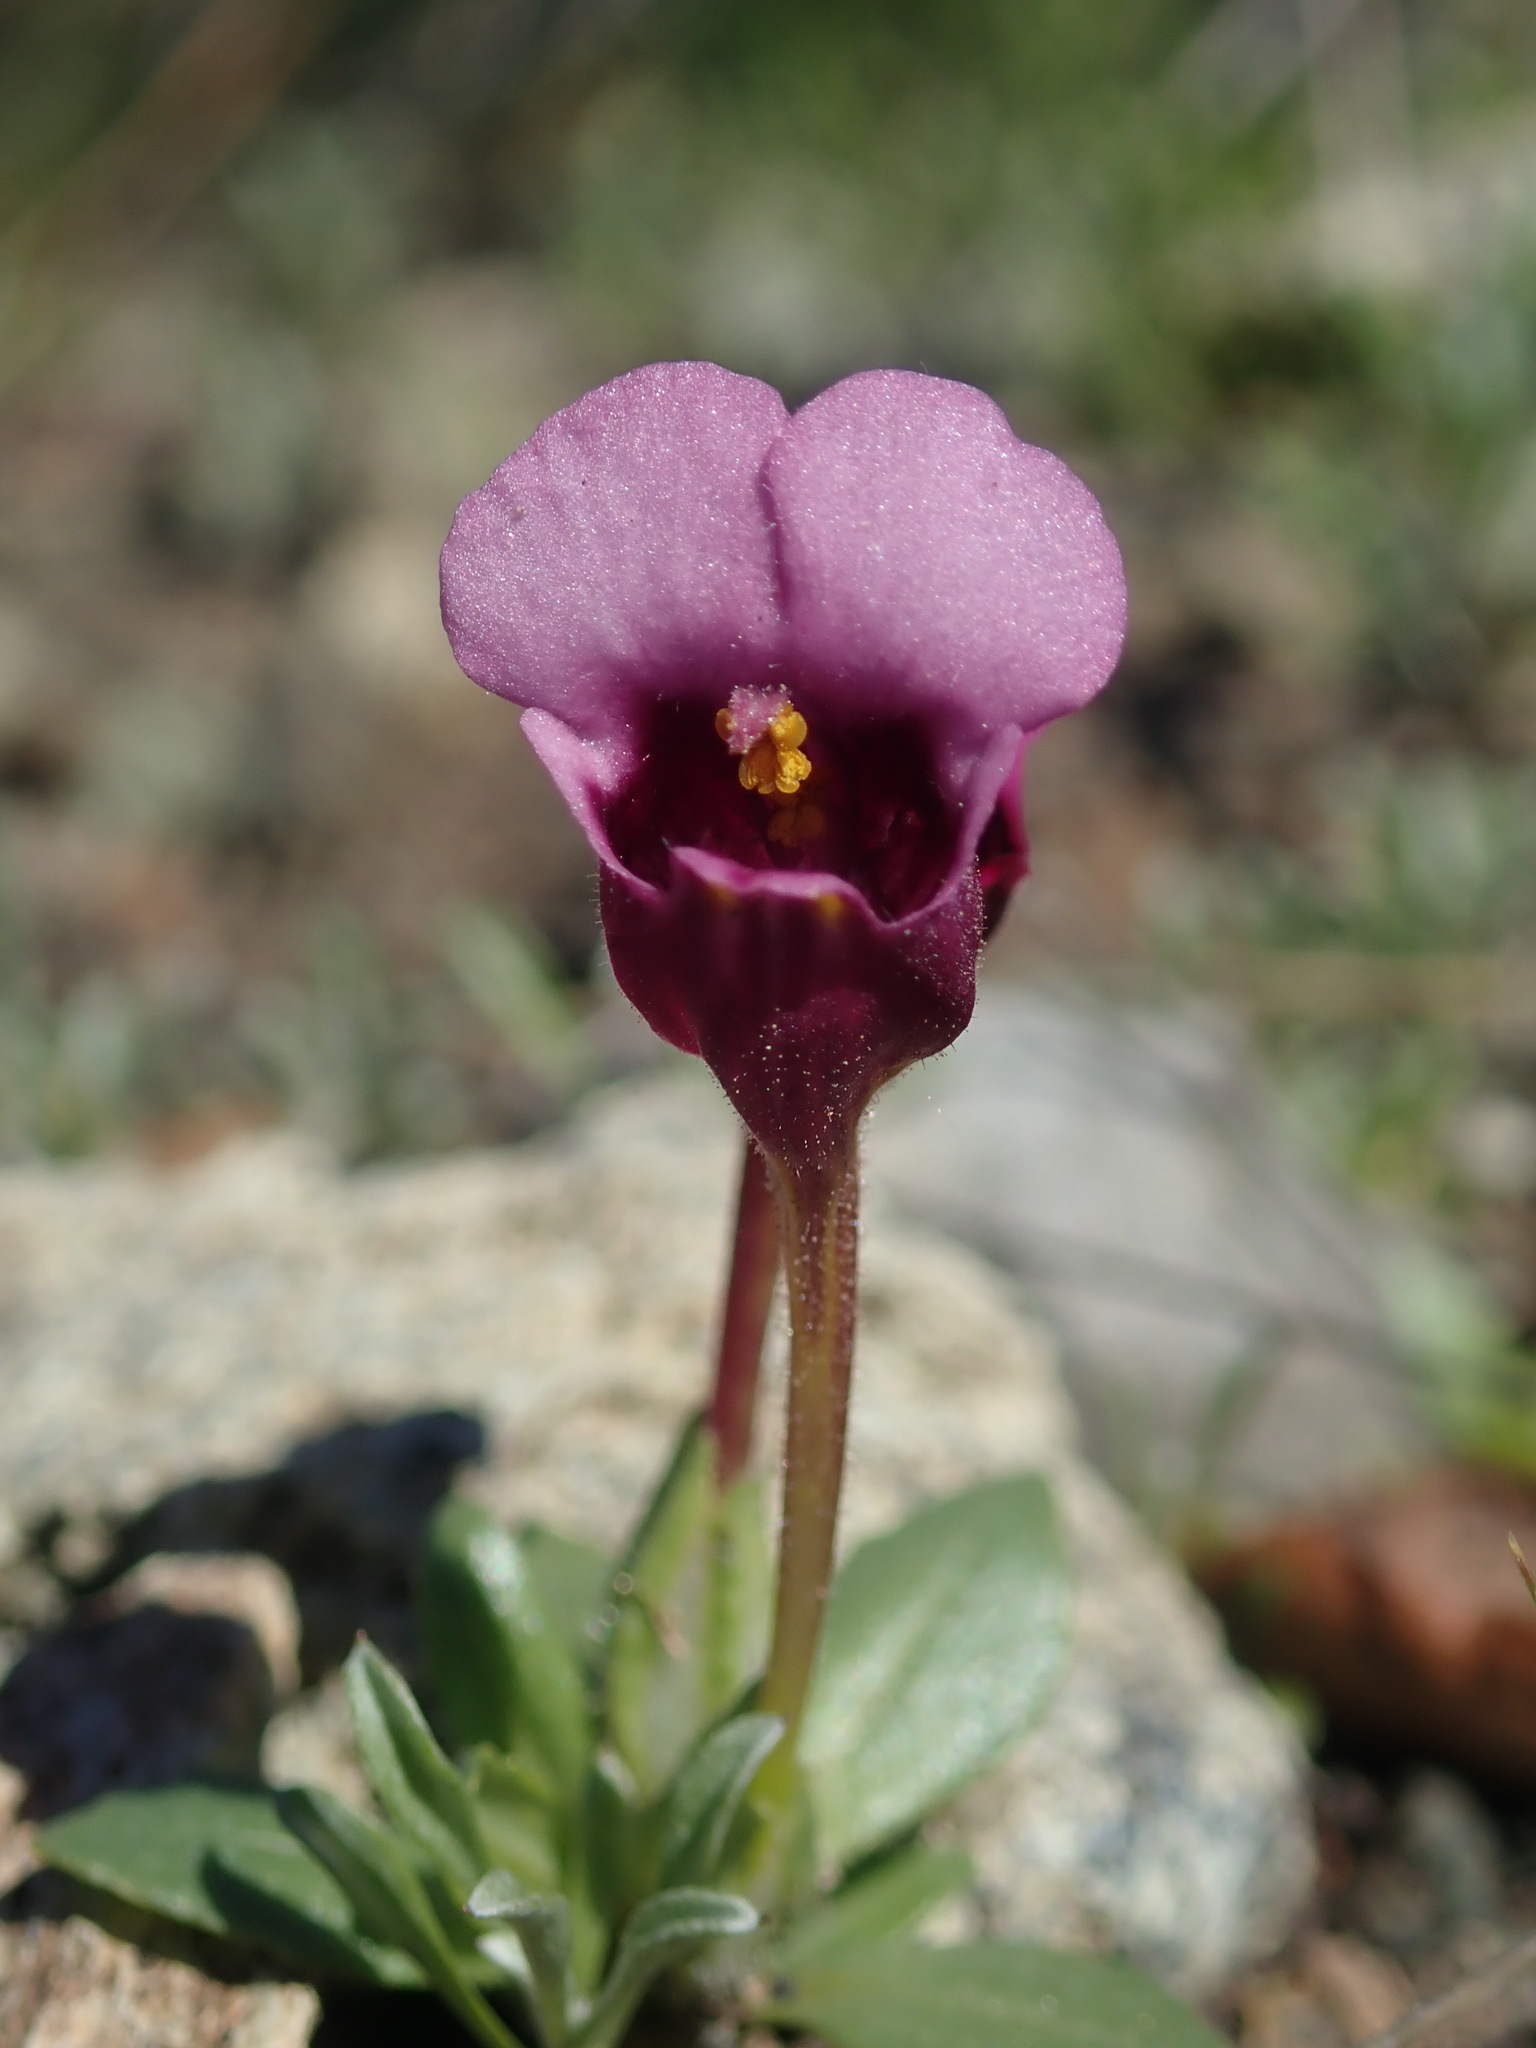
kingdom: Plantae
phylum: Tracheophyta
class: Magnoliopsida
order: Lamiales
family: Phrymaceae
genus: Diplacus
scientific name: Diplacus douglasii
